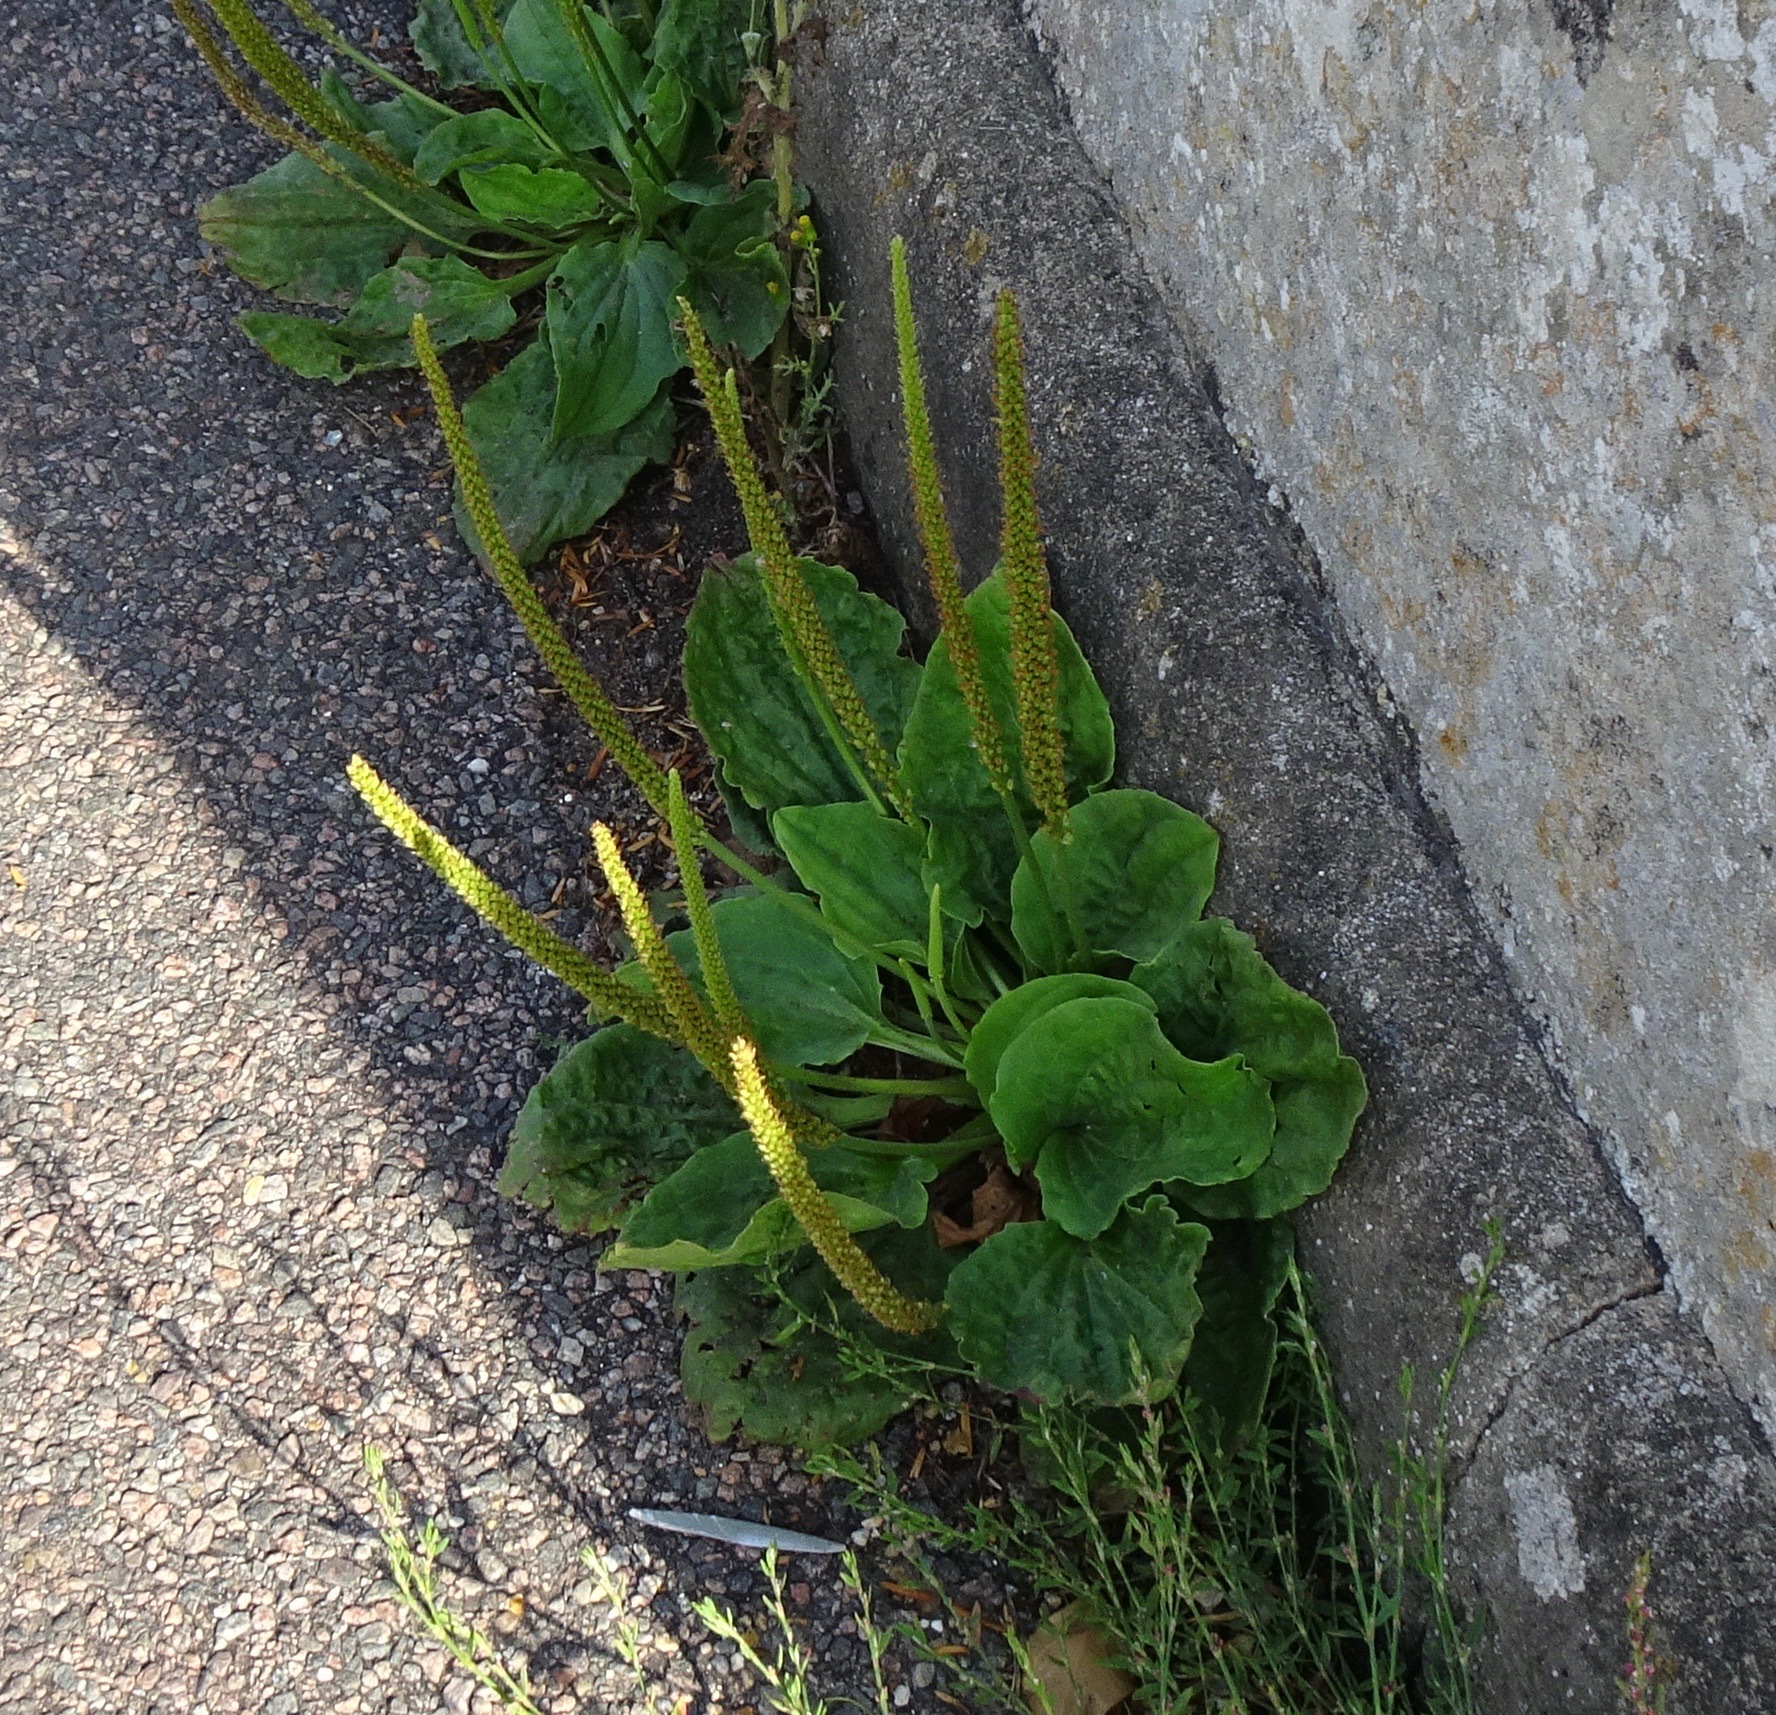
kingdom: Plantae
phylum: Tracheophyta
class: Magnoliopsida
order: Lamiales
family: Plantaginaceae
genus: Plantago
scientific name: Plantago major
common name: Common plantain
